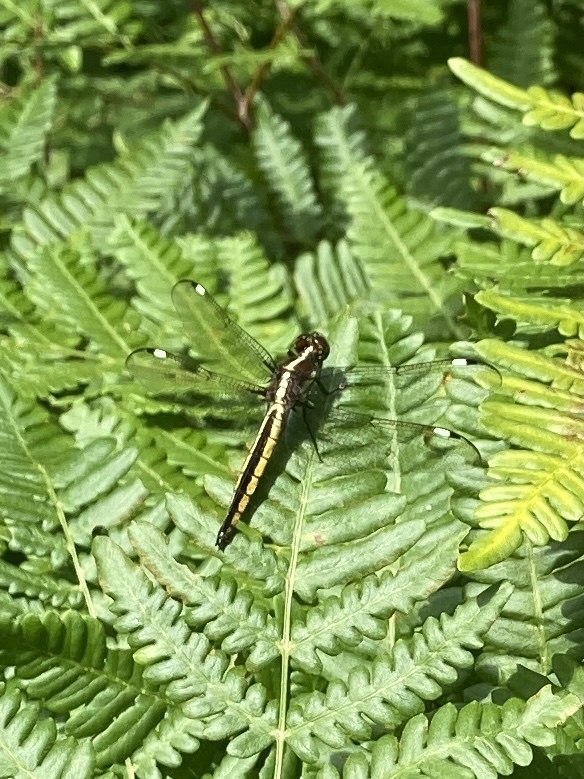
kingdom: Animalia
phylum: Arthropoda
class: Insecta
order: Odonata
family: Libellulidae
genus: Libellula
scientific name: Libellula cyanea
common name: Spangled skimmer
